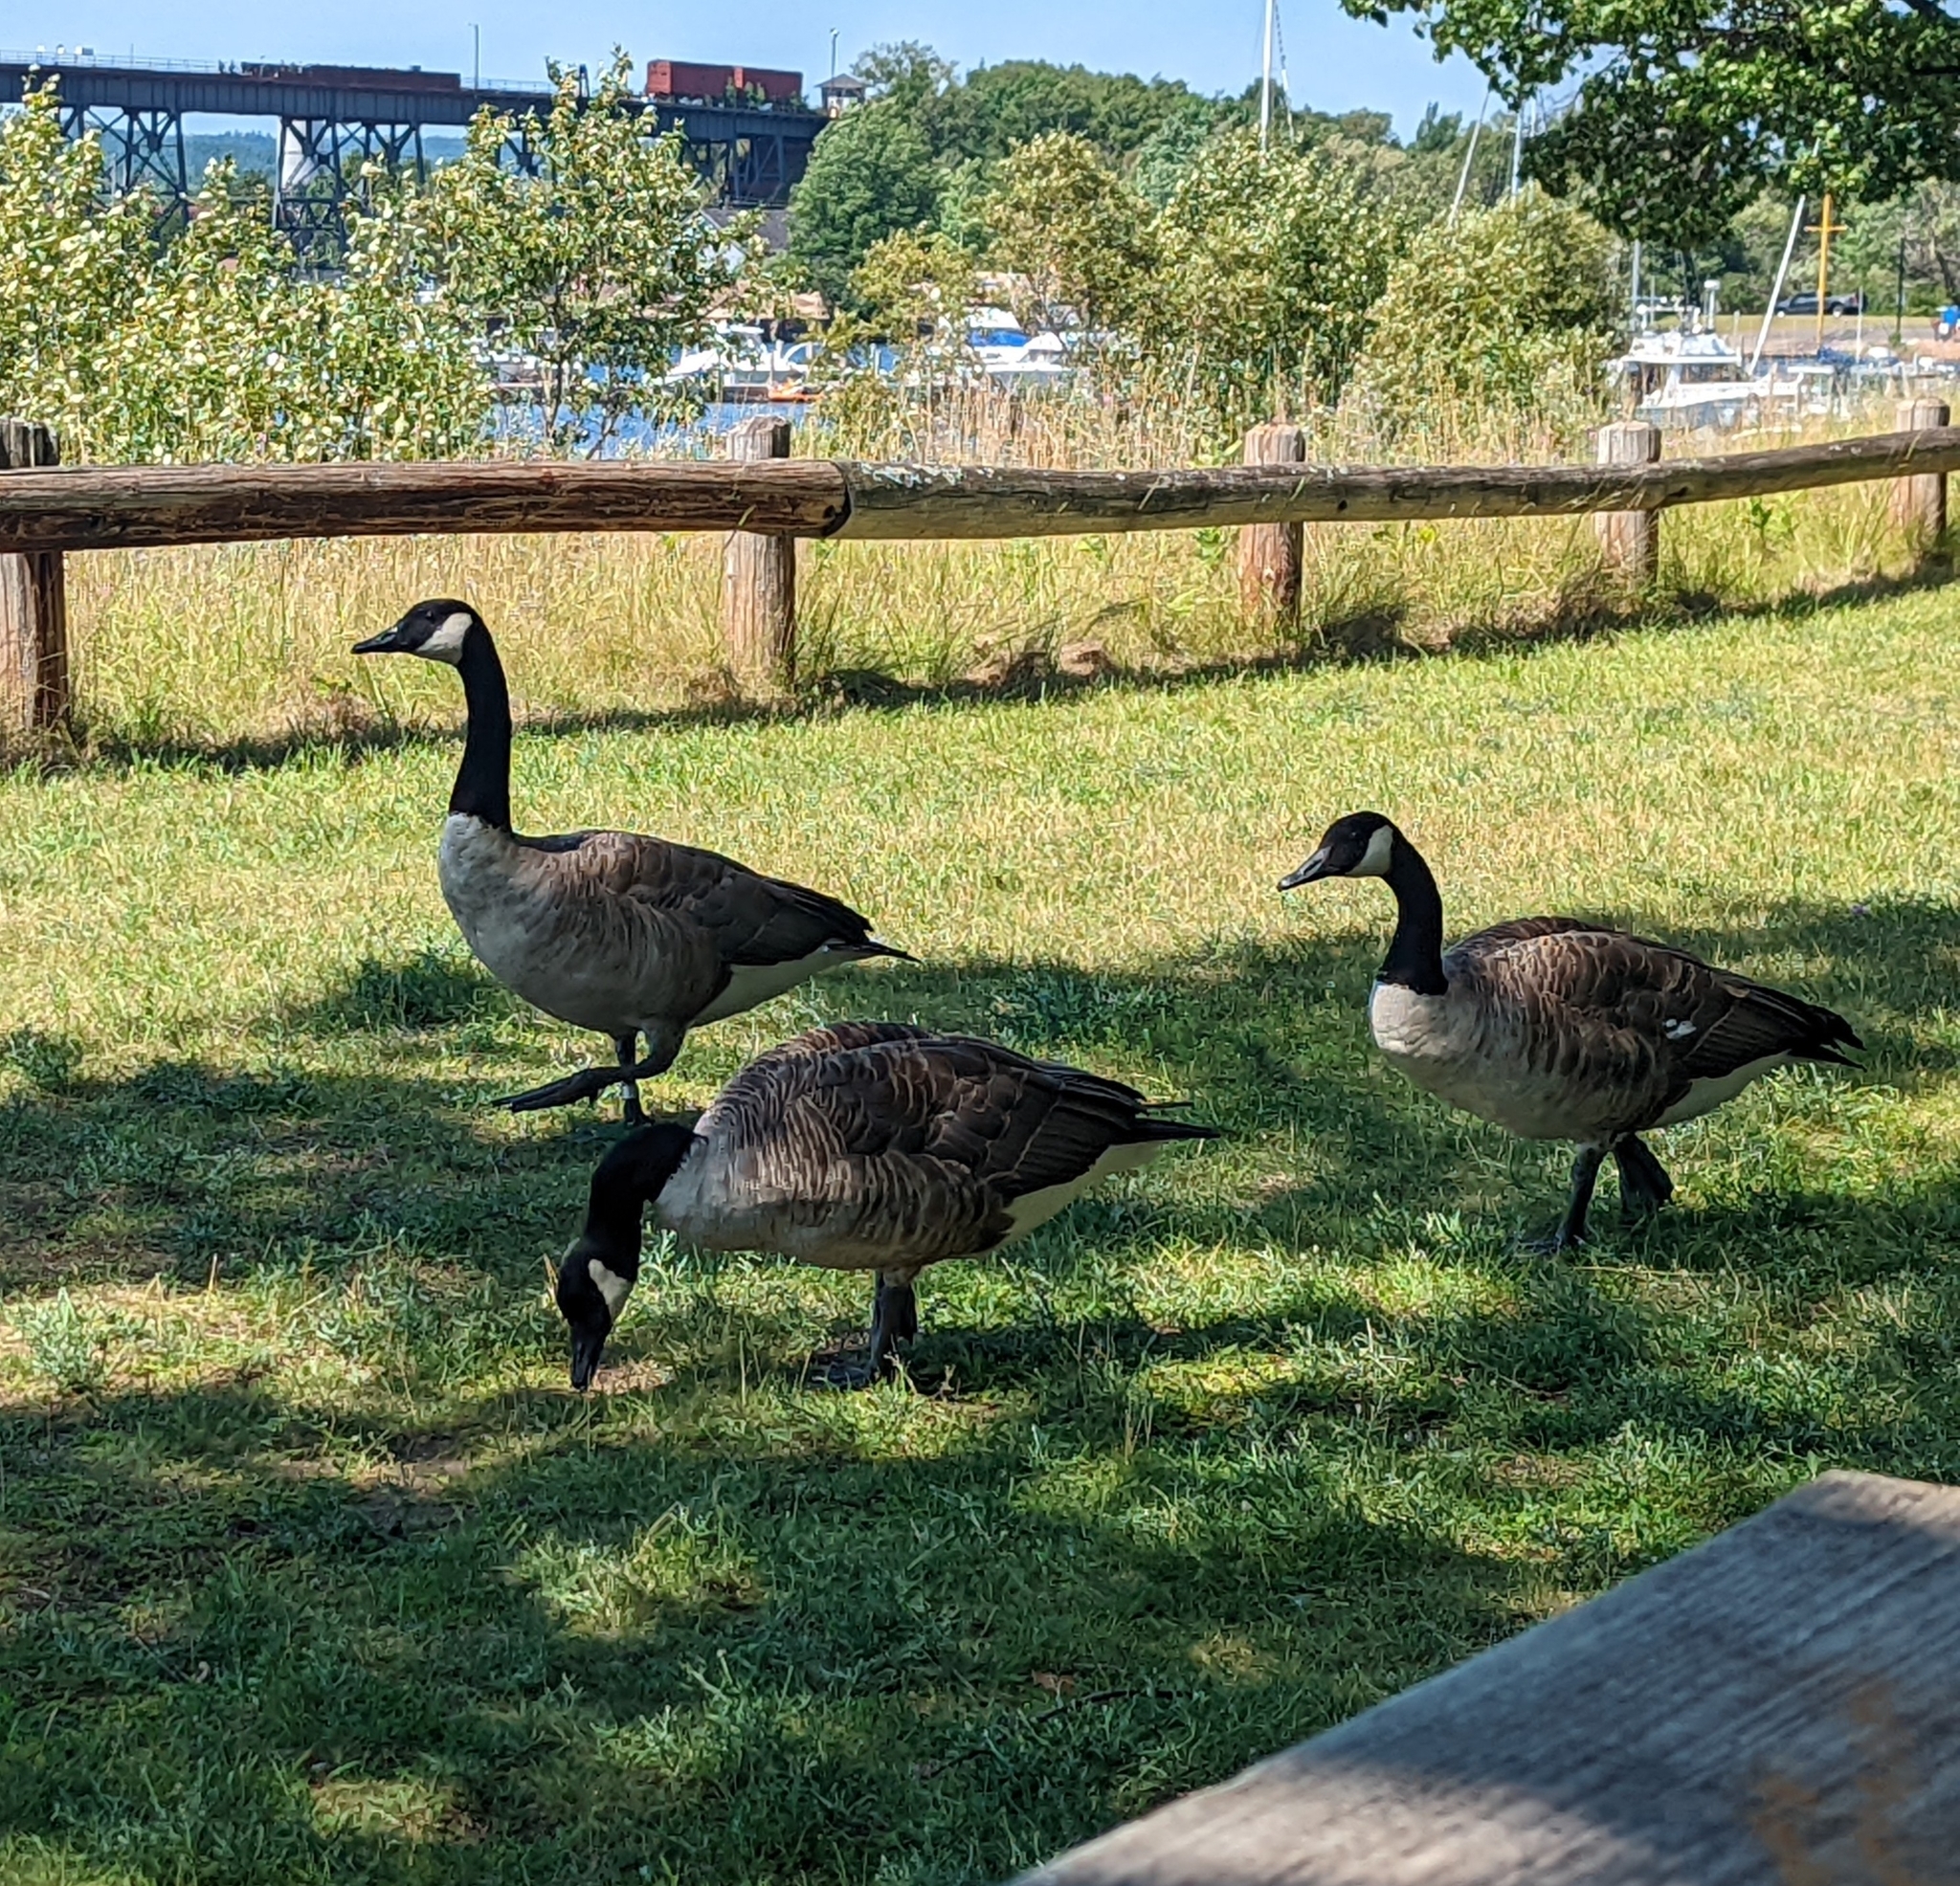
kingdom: Animalia
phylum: Chordata
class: Aves
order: Anseriformes
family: Anatidae
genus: Branta
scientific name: Branta canadensis
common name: Canada goose
